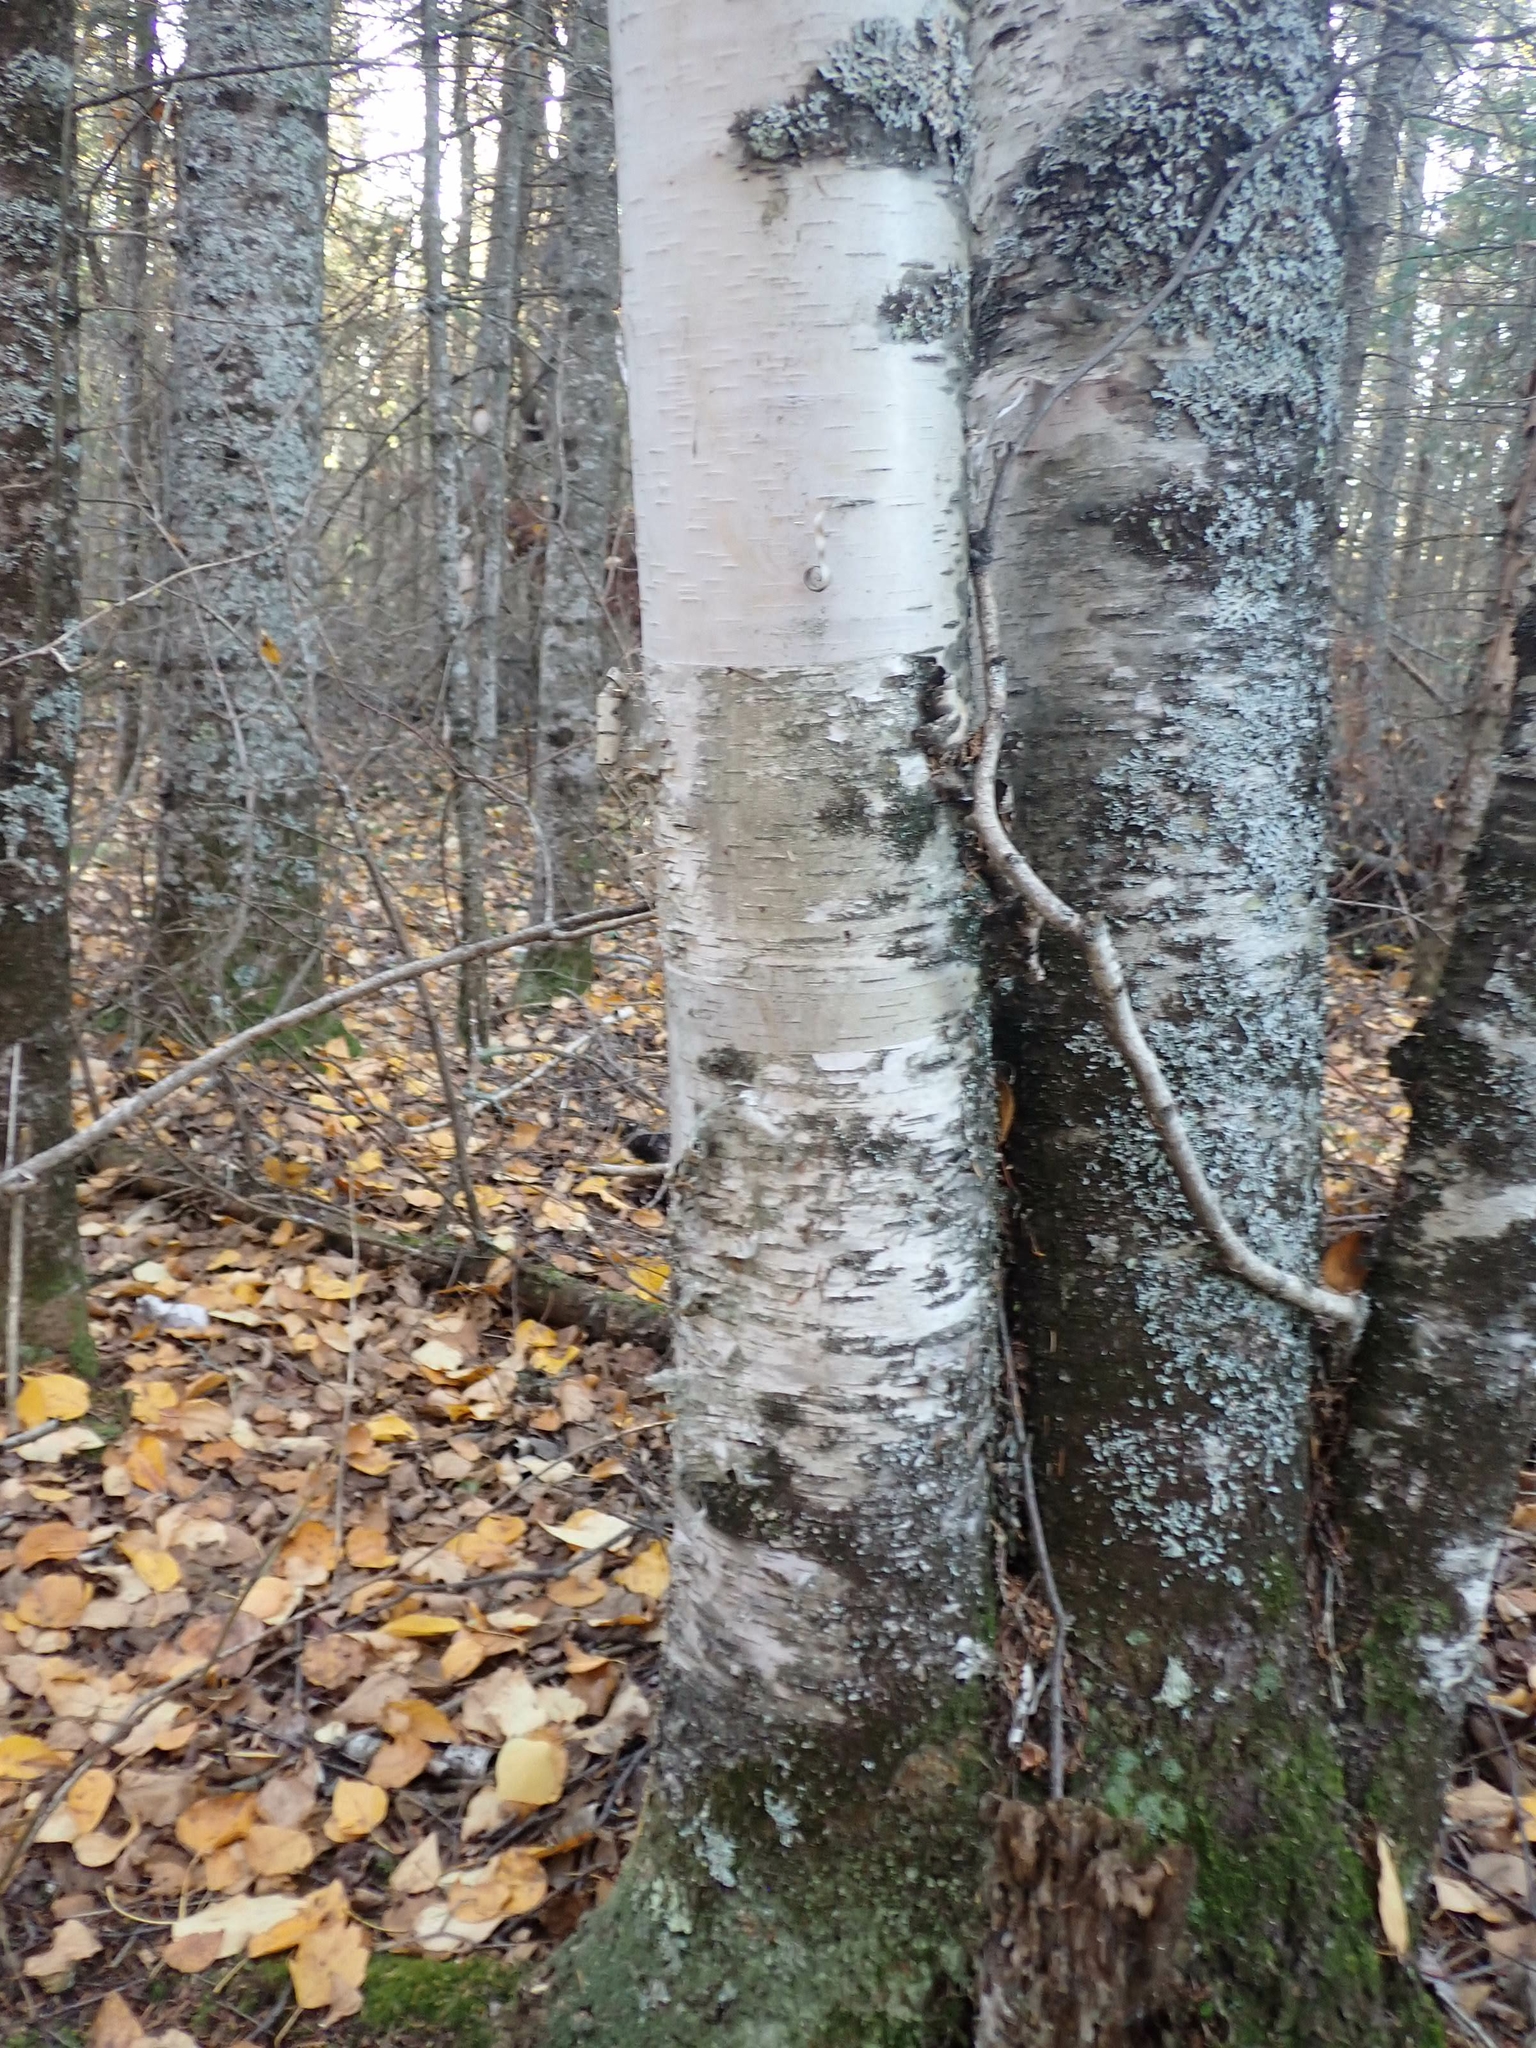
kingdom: Plantae
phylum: Tracheophyta
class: Magnoliopsida
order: Fagales
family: Betulaceae
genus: Betula
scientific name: Betula papyrifera
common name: Paper birch
